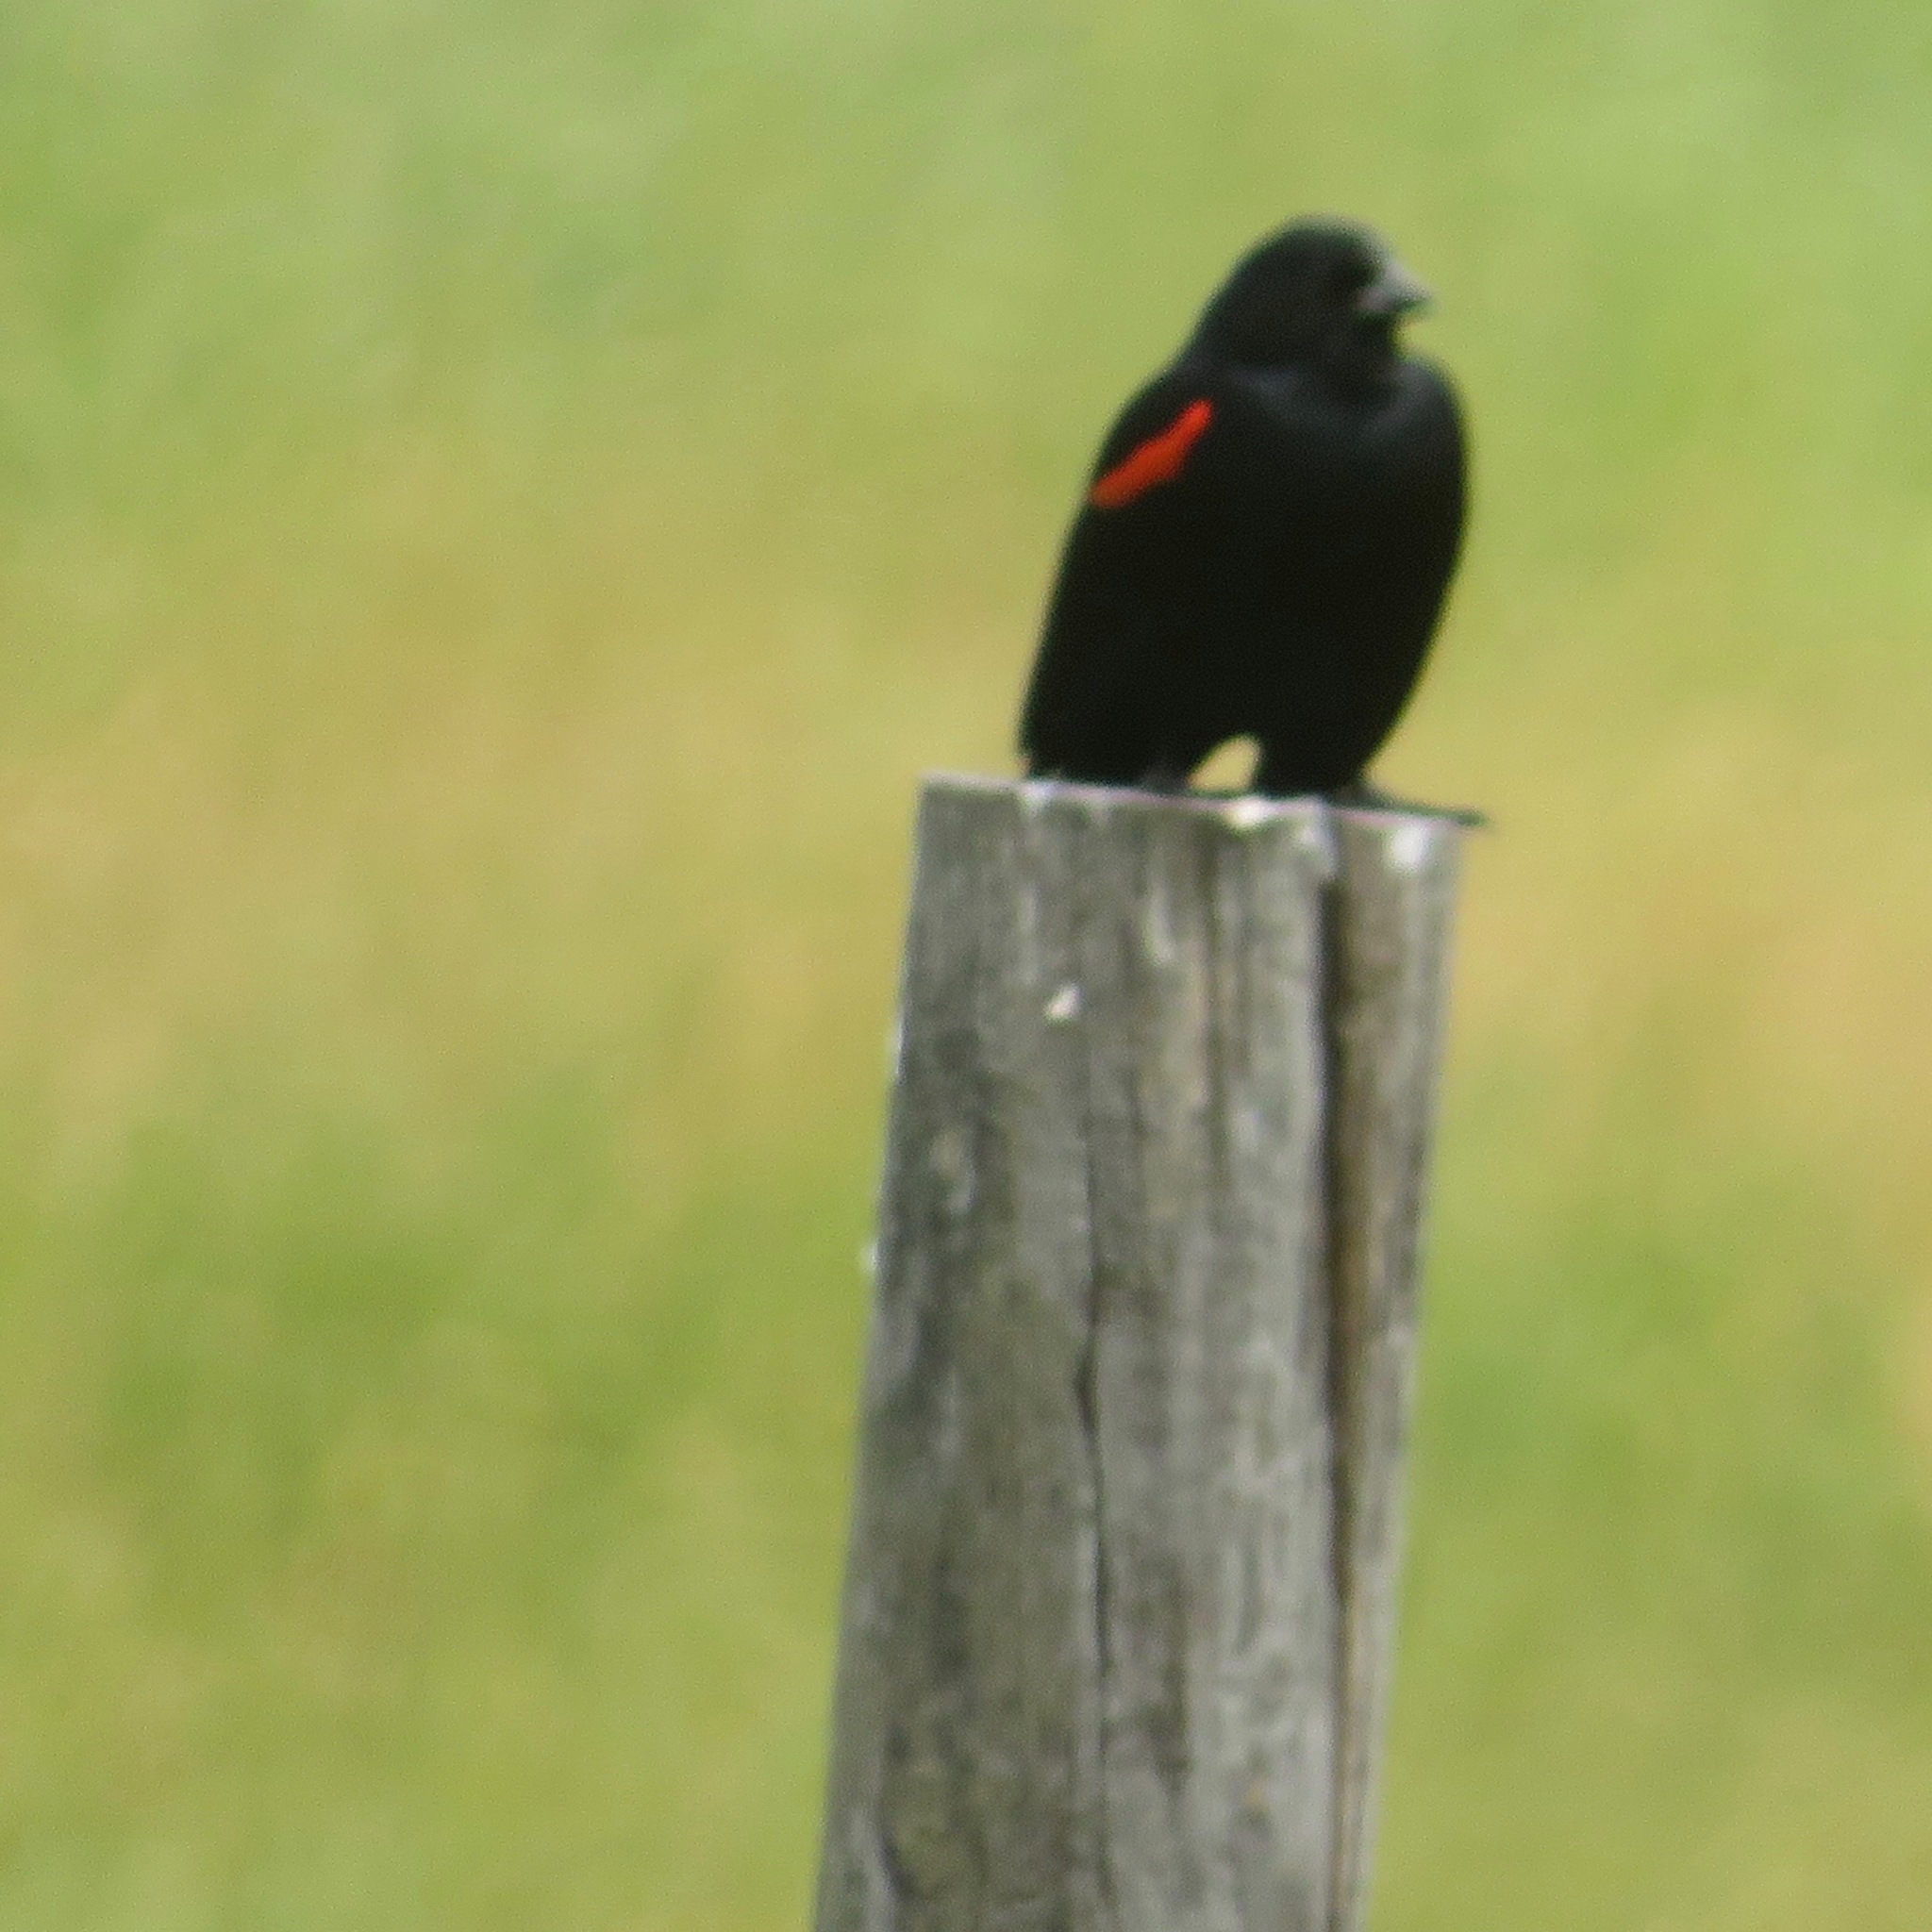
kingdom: Animalia
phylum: Chordata
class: Aves
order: Passeriformes
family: Icteridae
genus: Agelaius
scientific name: Agelaius phoeniceus
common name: Red-winged blackbird
